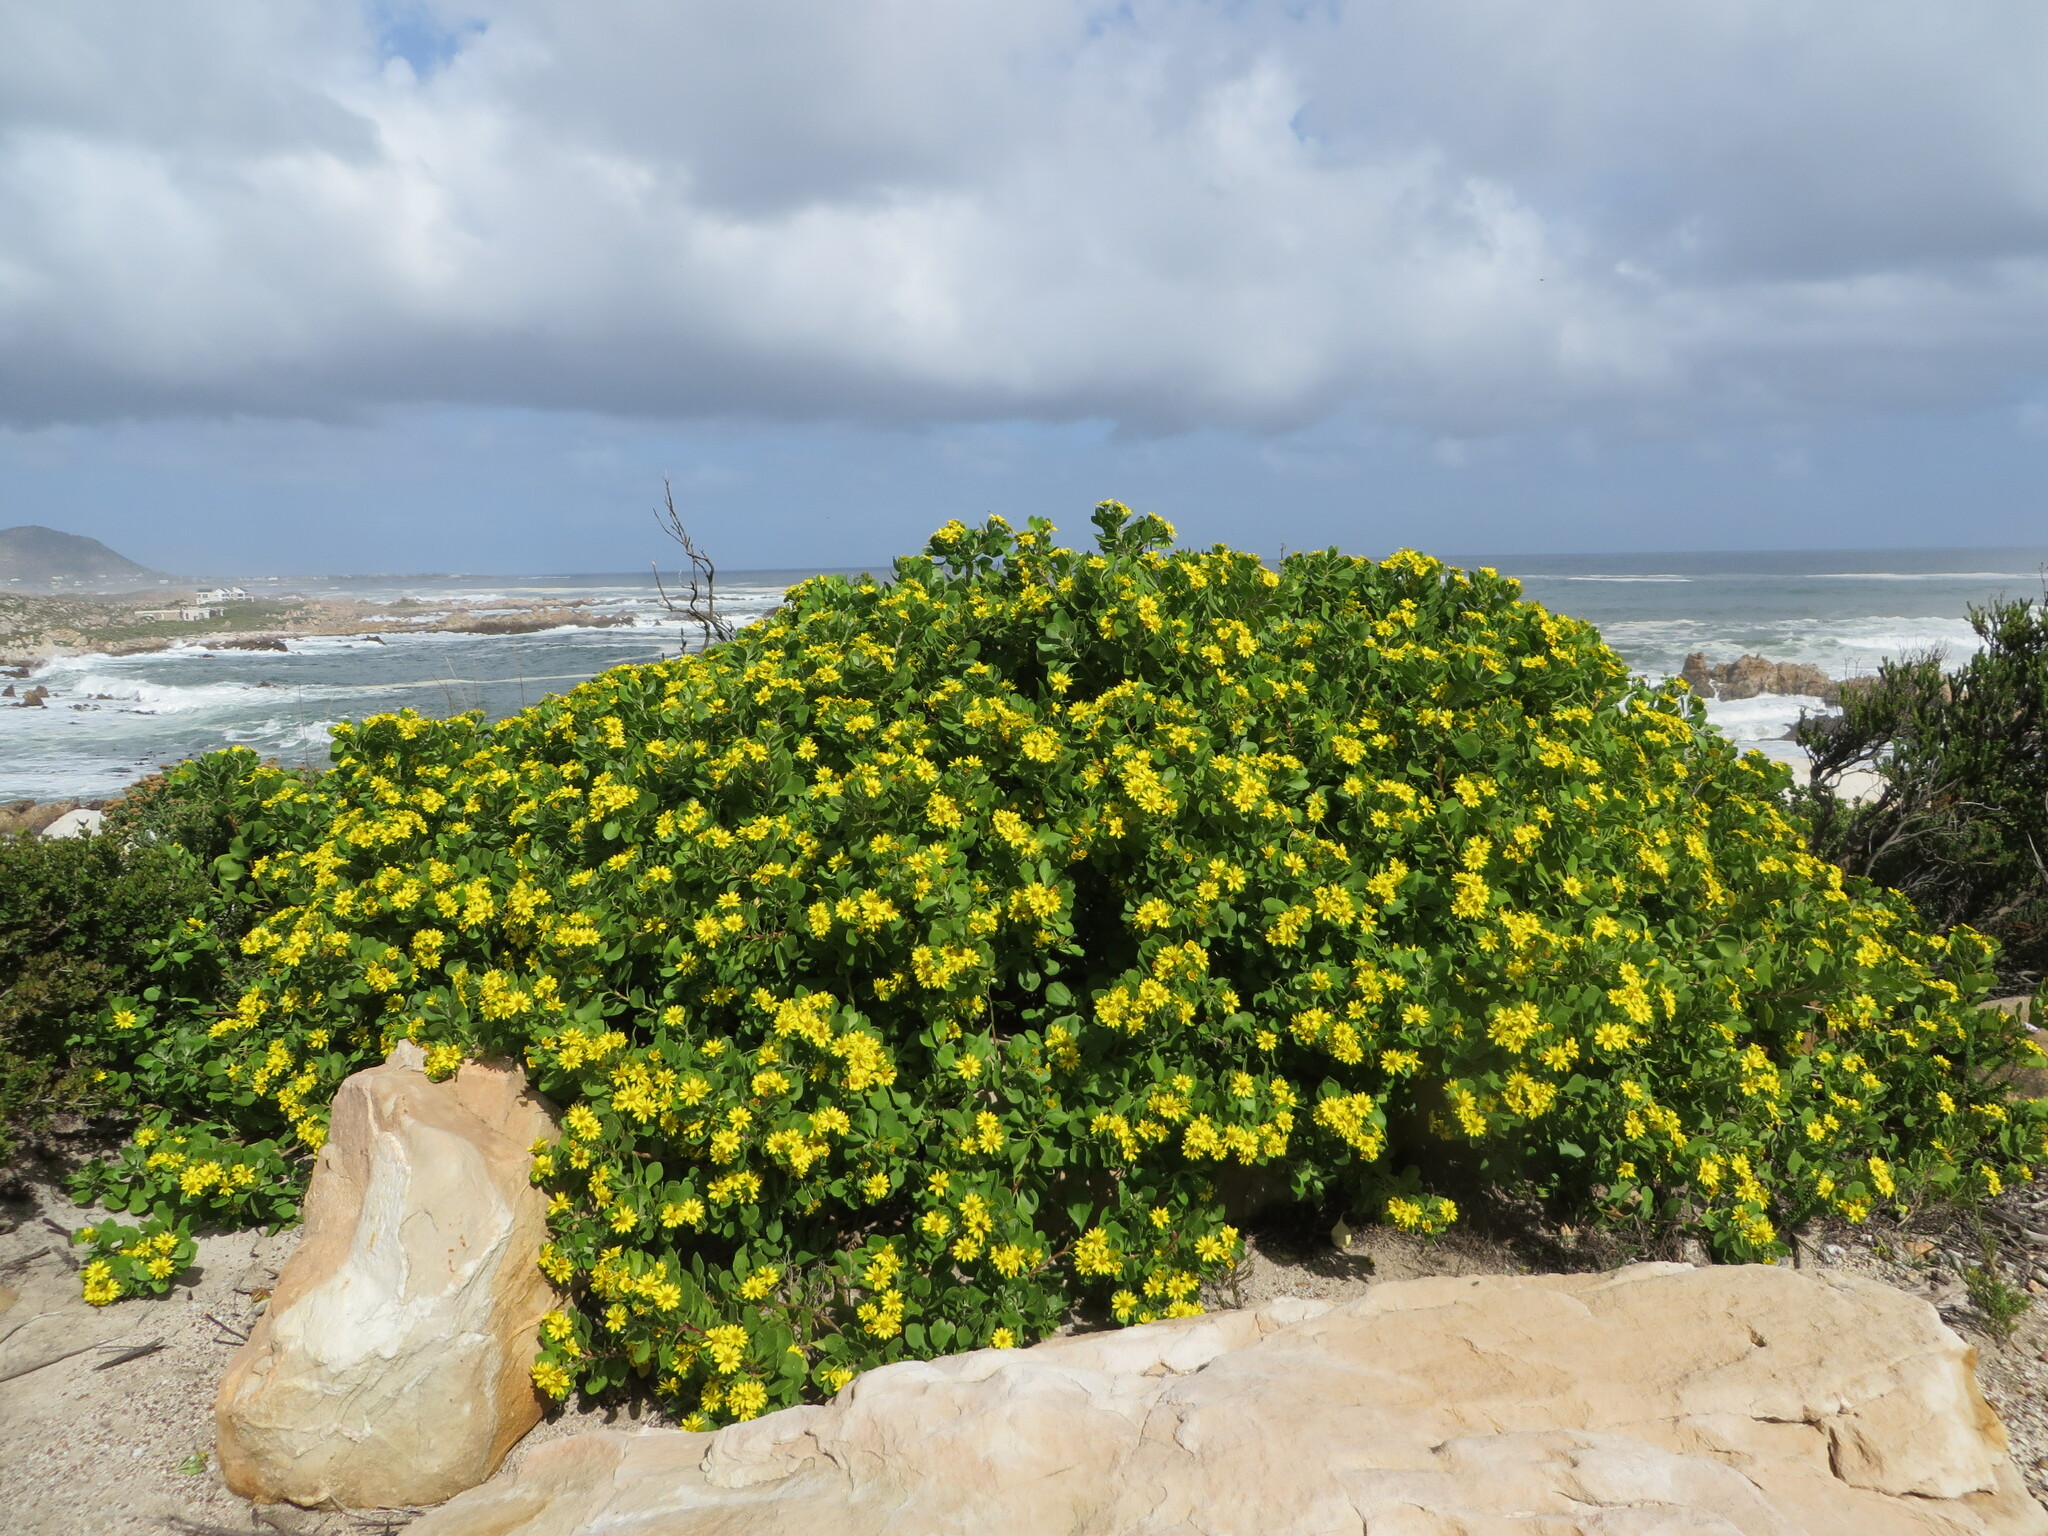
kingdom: Plantae
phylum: Tracheophyta
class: Magnoliopsida
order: Asterales
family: Asteraceae
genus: Osteospermum
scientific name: Osteospermum moniliferum
